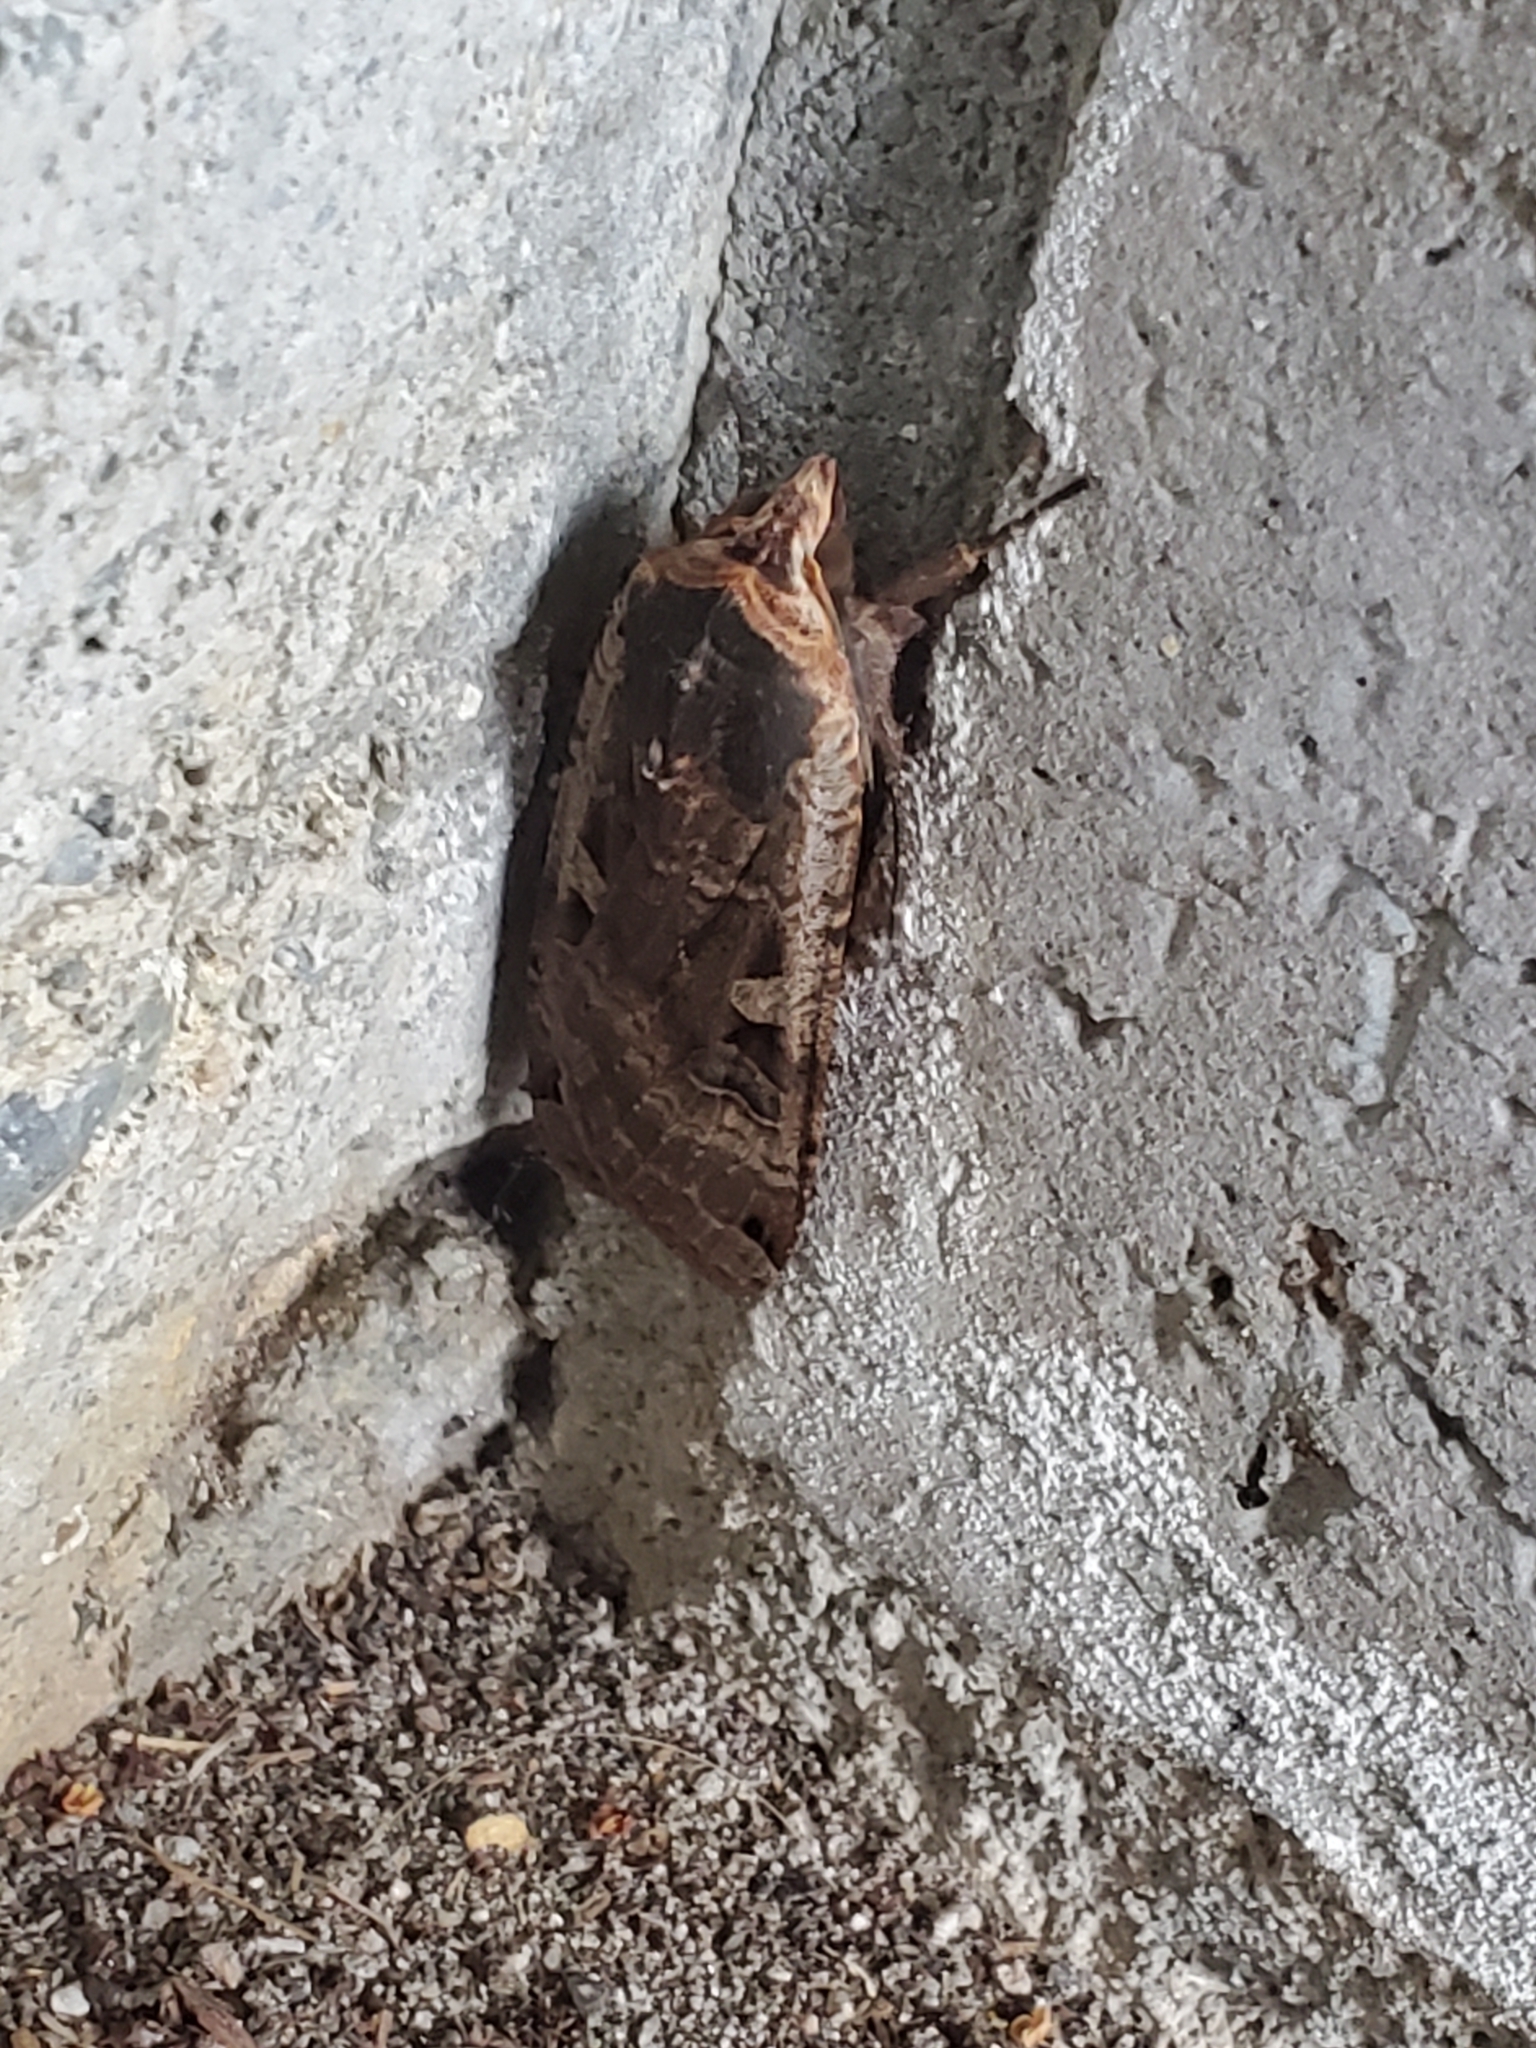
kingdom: Animalia
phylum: Arthropoda
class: Insecta
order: Lepidoptera
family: Noctuidae
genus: Noctua
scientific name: Noctua pronuba
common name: Large yellow underwing
